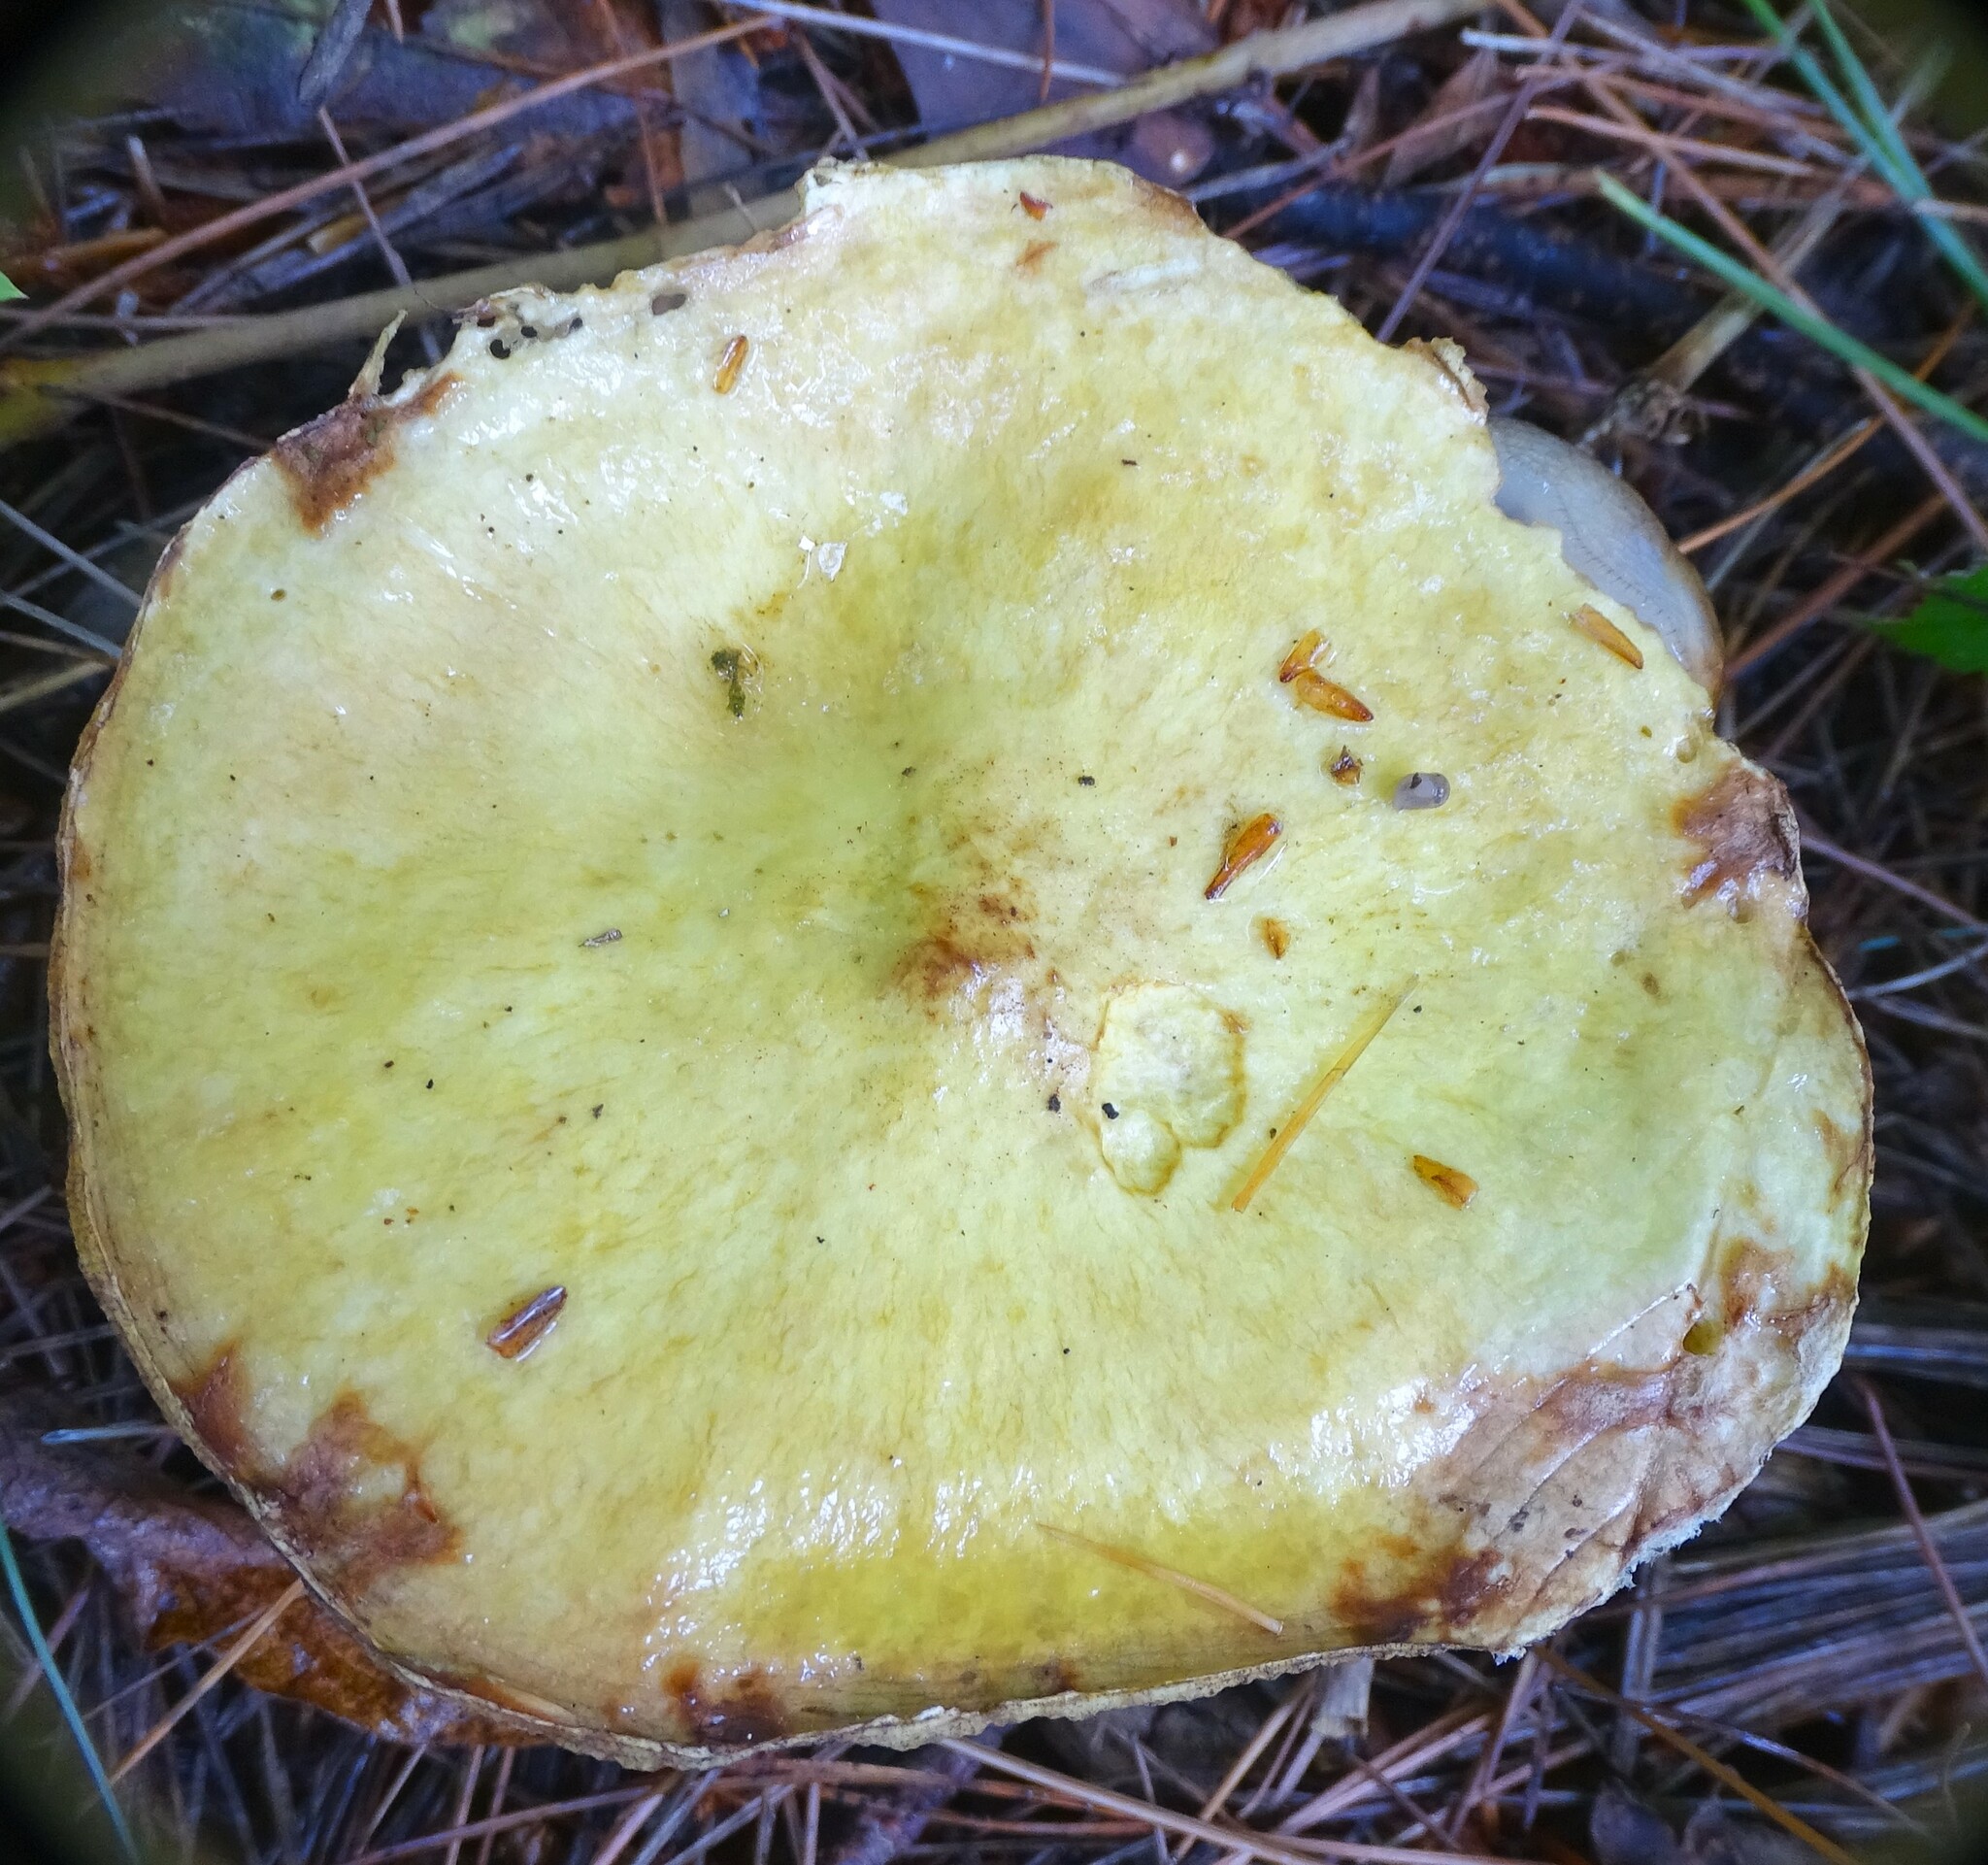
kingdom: Fungi
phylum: Basidiomycota
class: Agaricomycetes
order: Boletales
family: Suillaceae
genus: Suillus
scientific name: Suillus americanus
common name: Chicken fat mushroom
